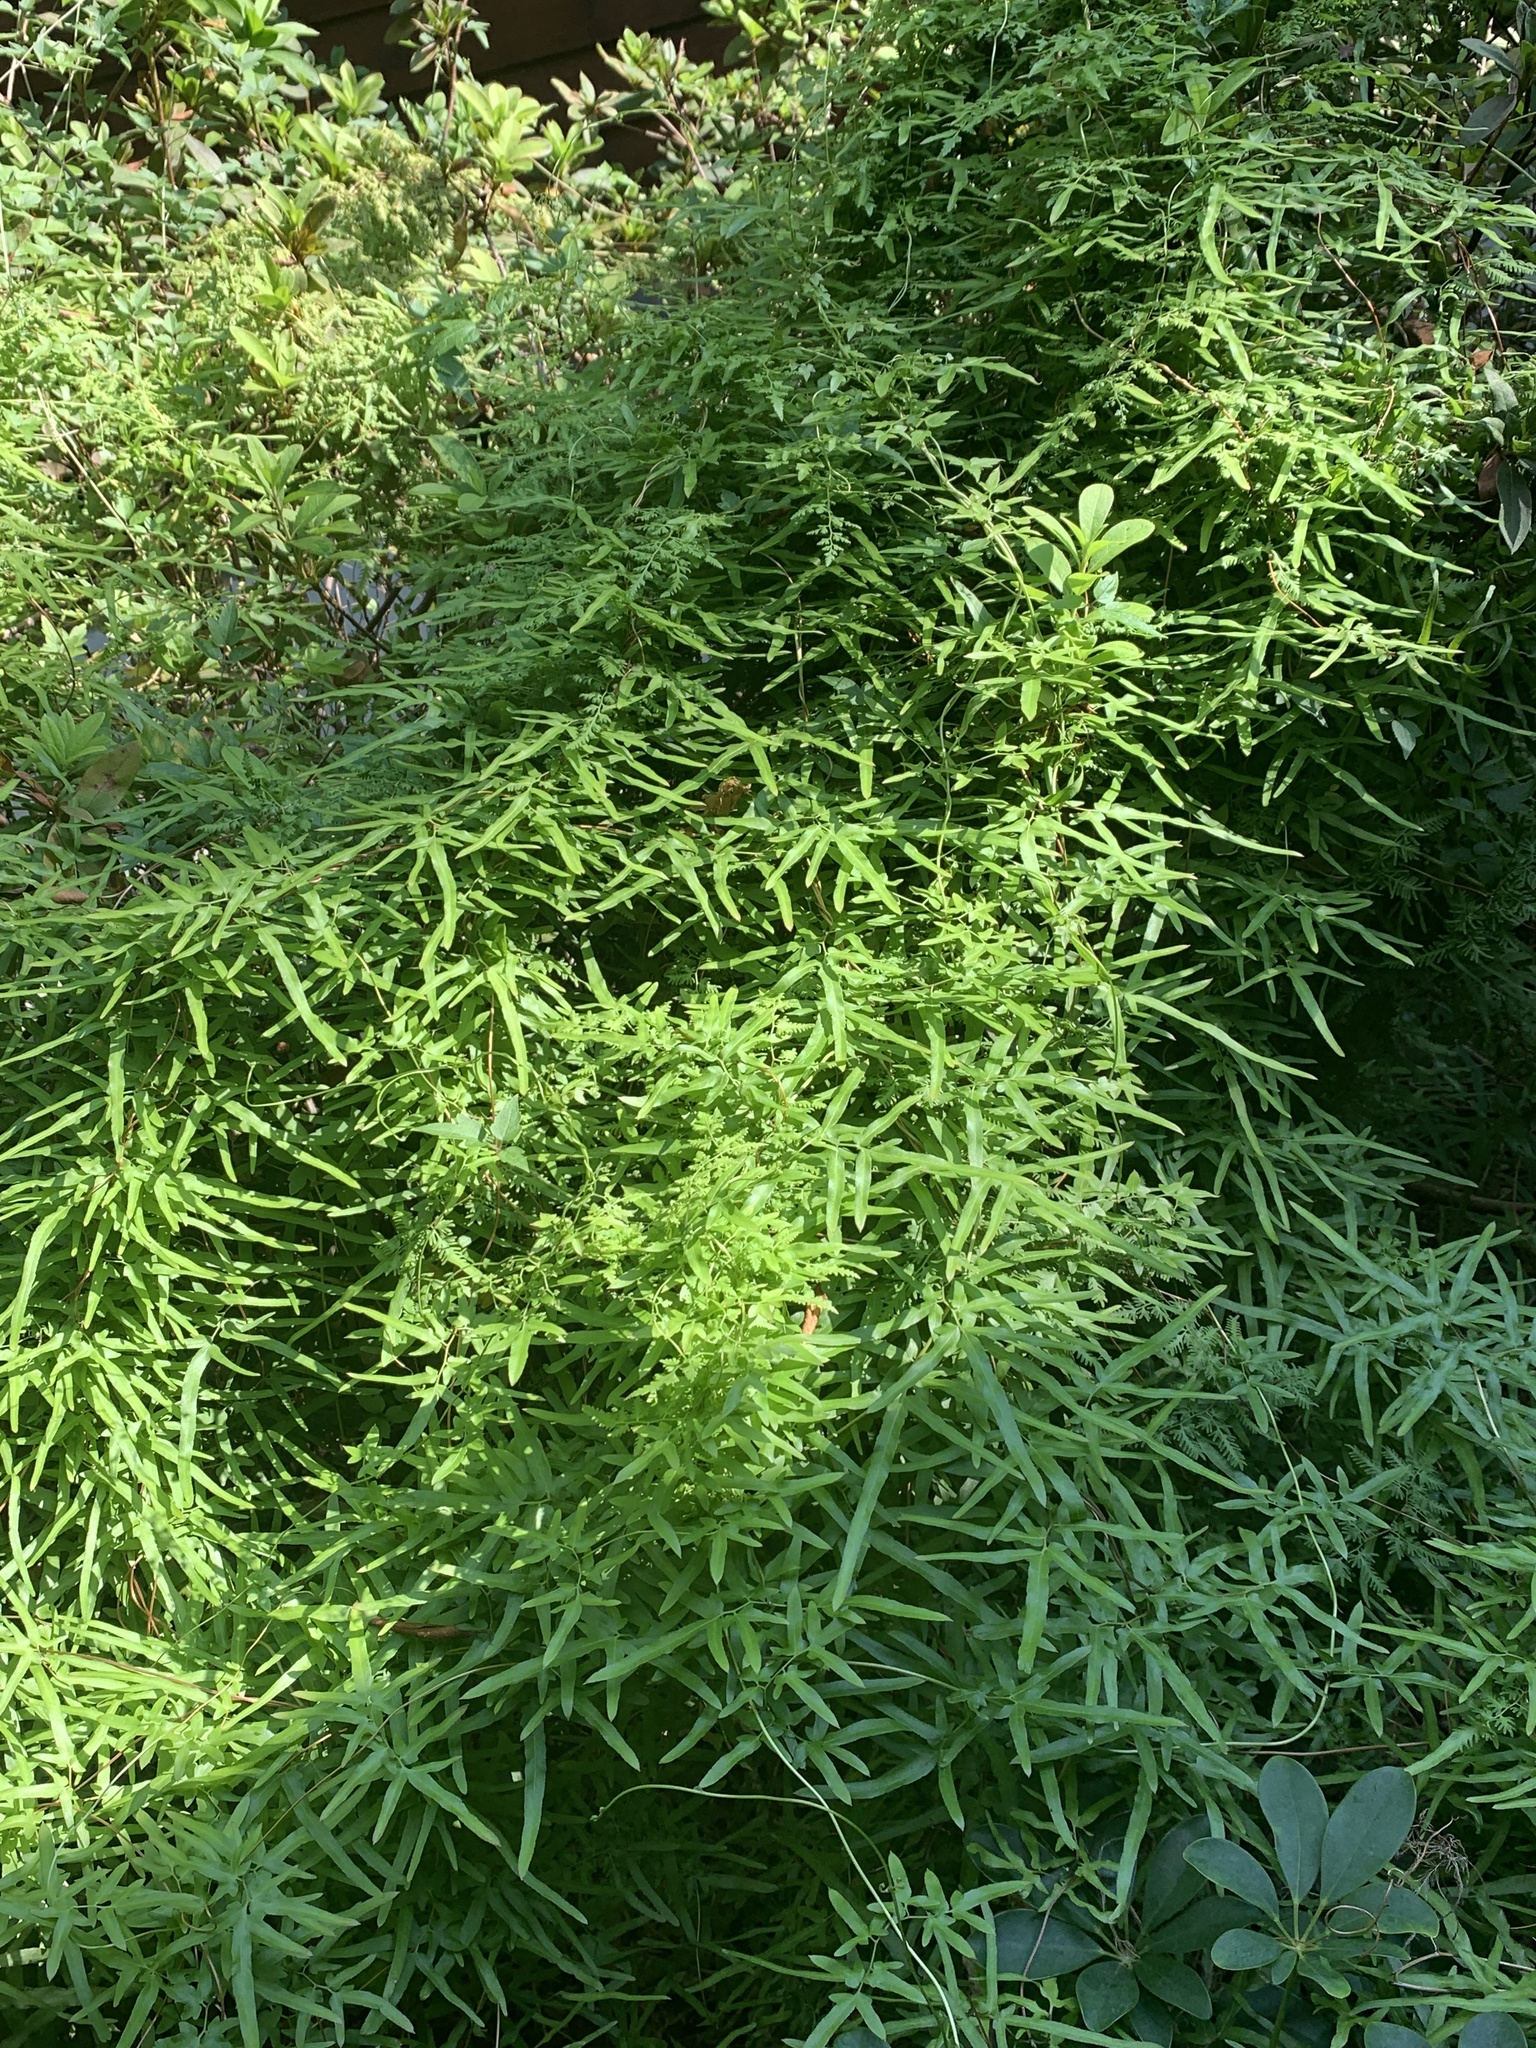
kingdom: Plantae
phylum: Tracheophyta
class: Polypodiopsida
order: Schizaeales
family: Lygodiaceae
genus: Lygodium
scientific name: Lygodium japonicum
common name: Japanese climbing fern
